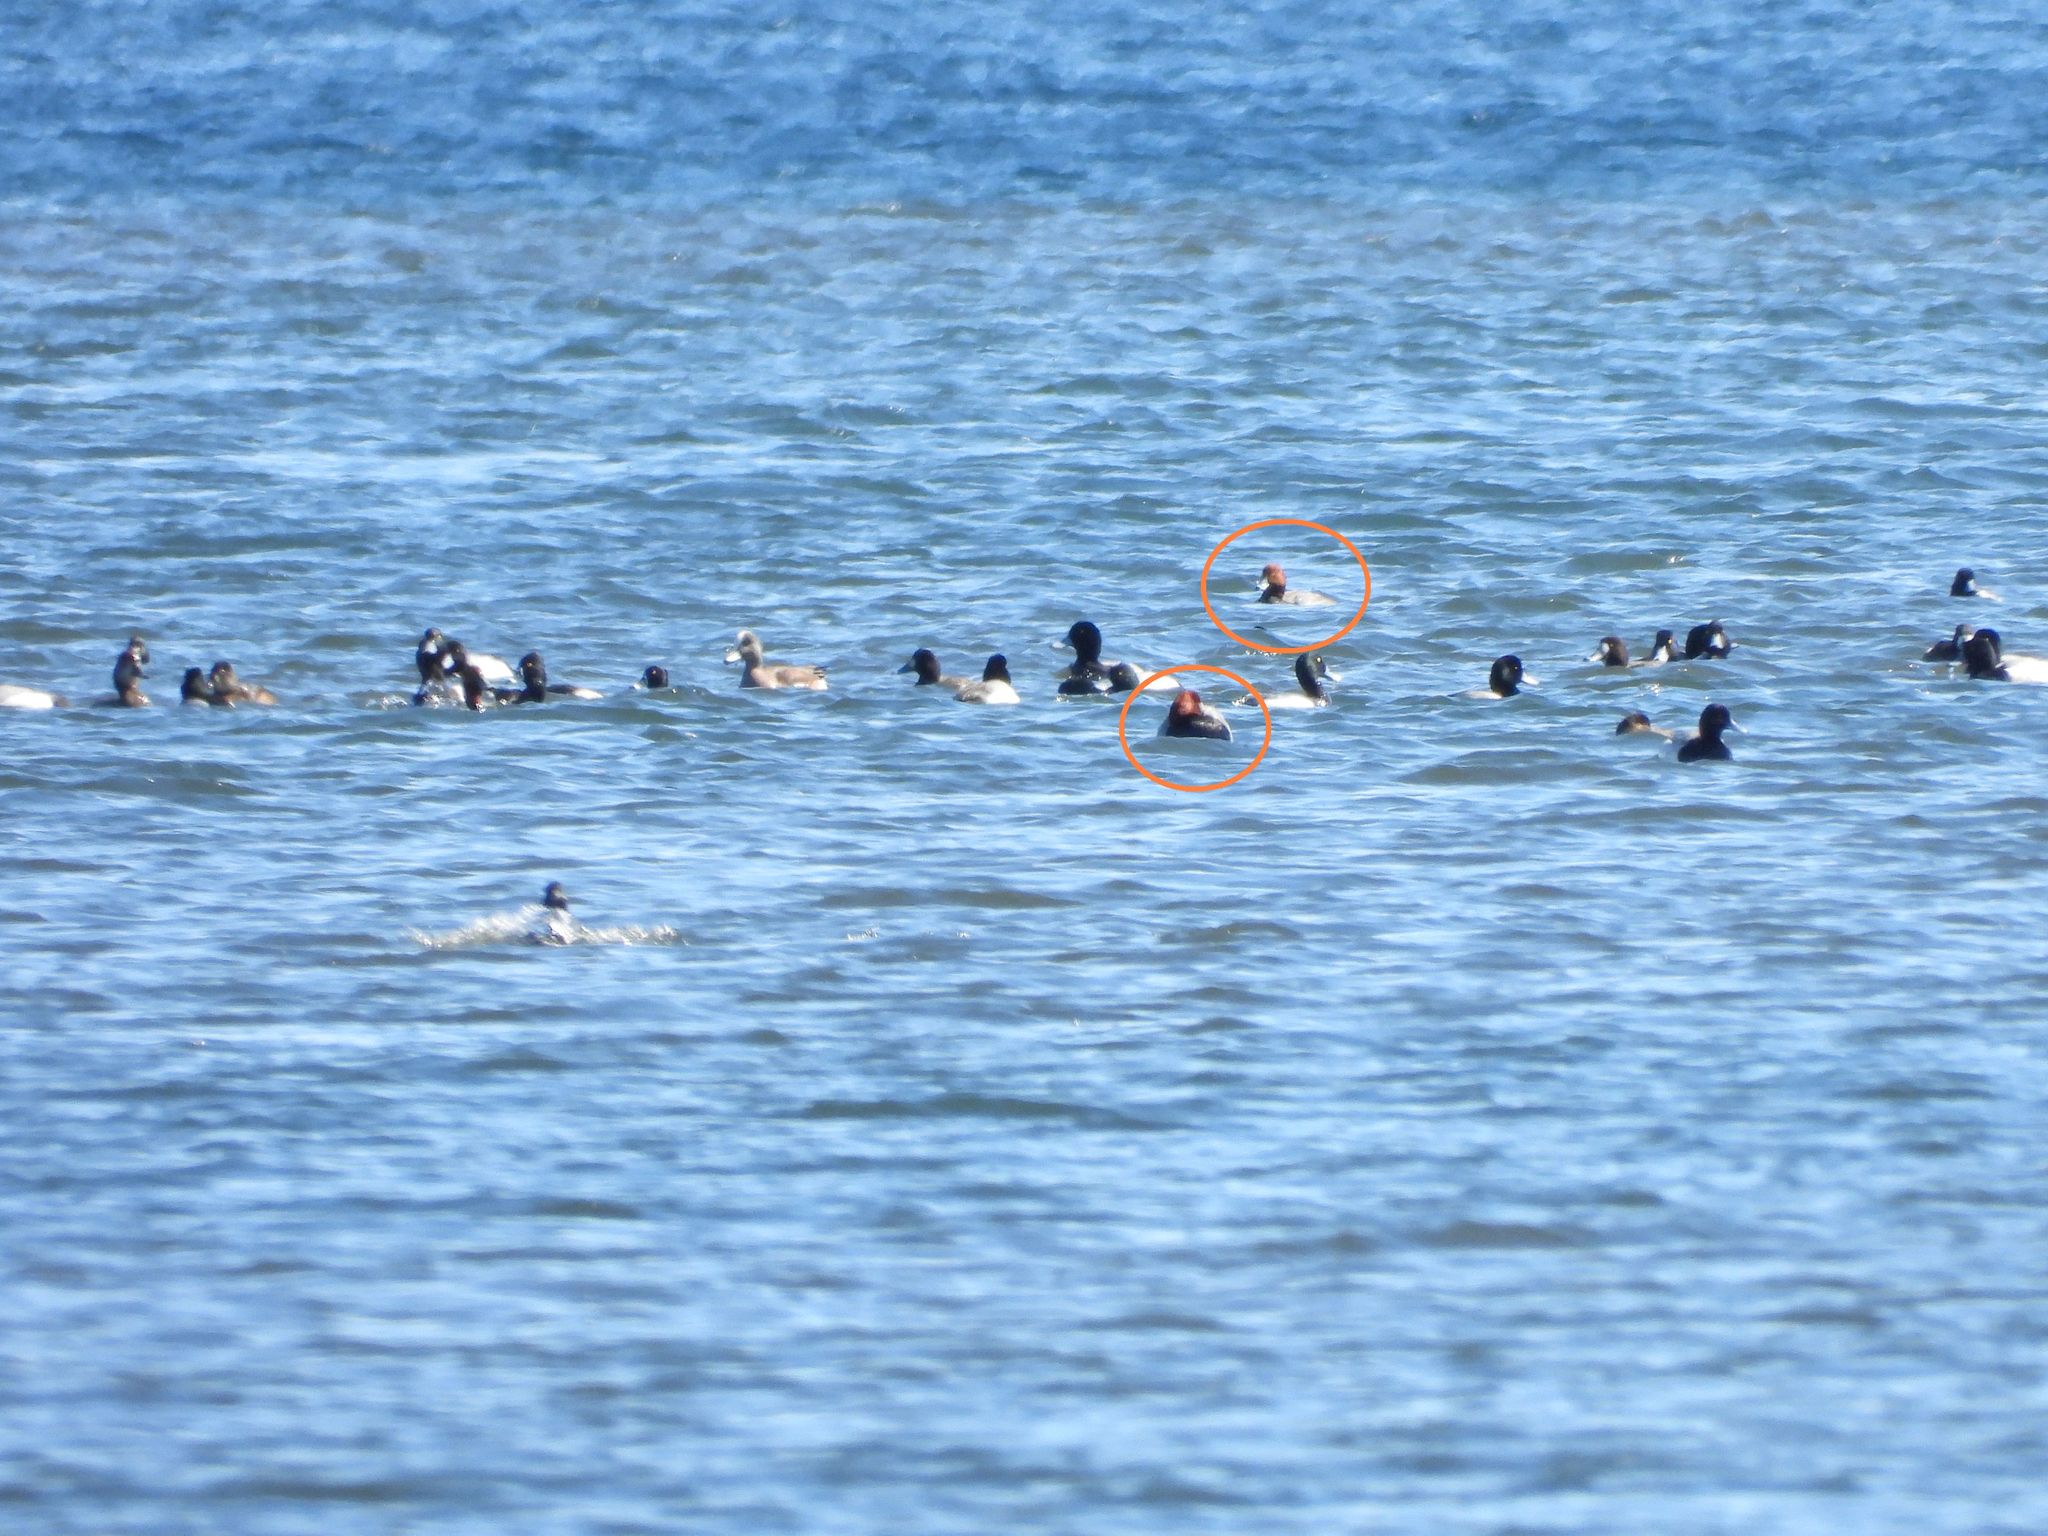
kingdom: Animalia
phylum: Chordata
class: Aves
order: Anseriformes
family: Anatidae
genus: Aythya
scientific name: Aythya americana
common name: Redhead
